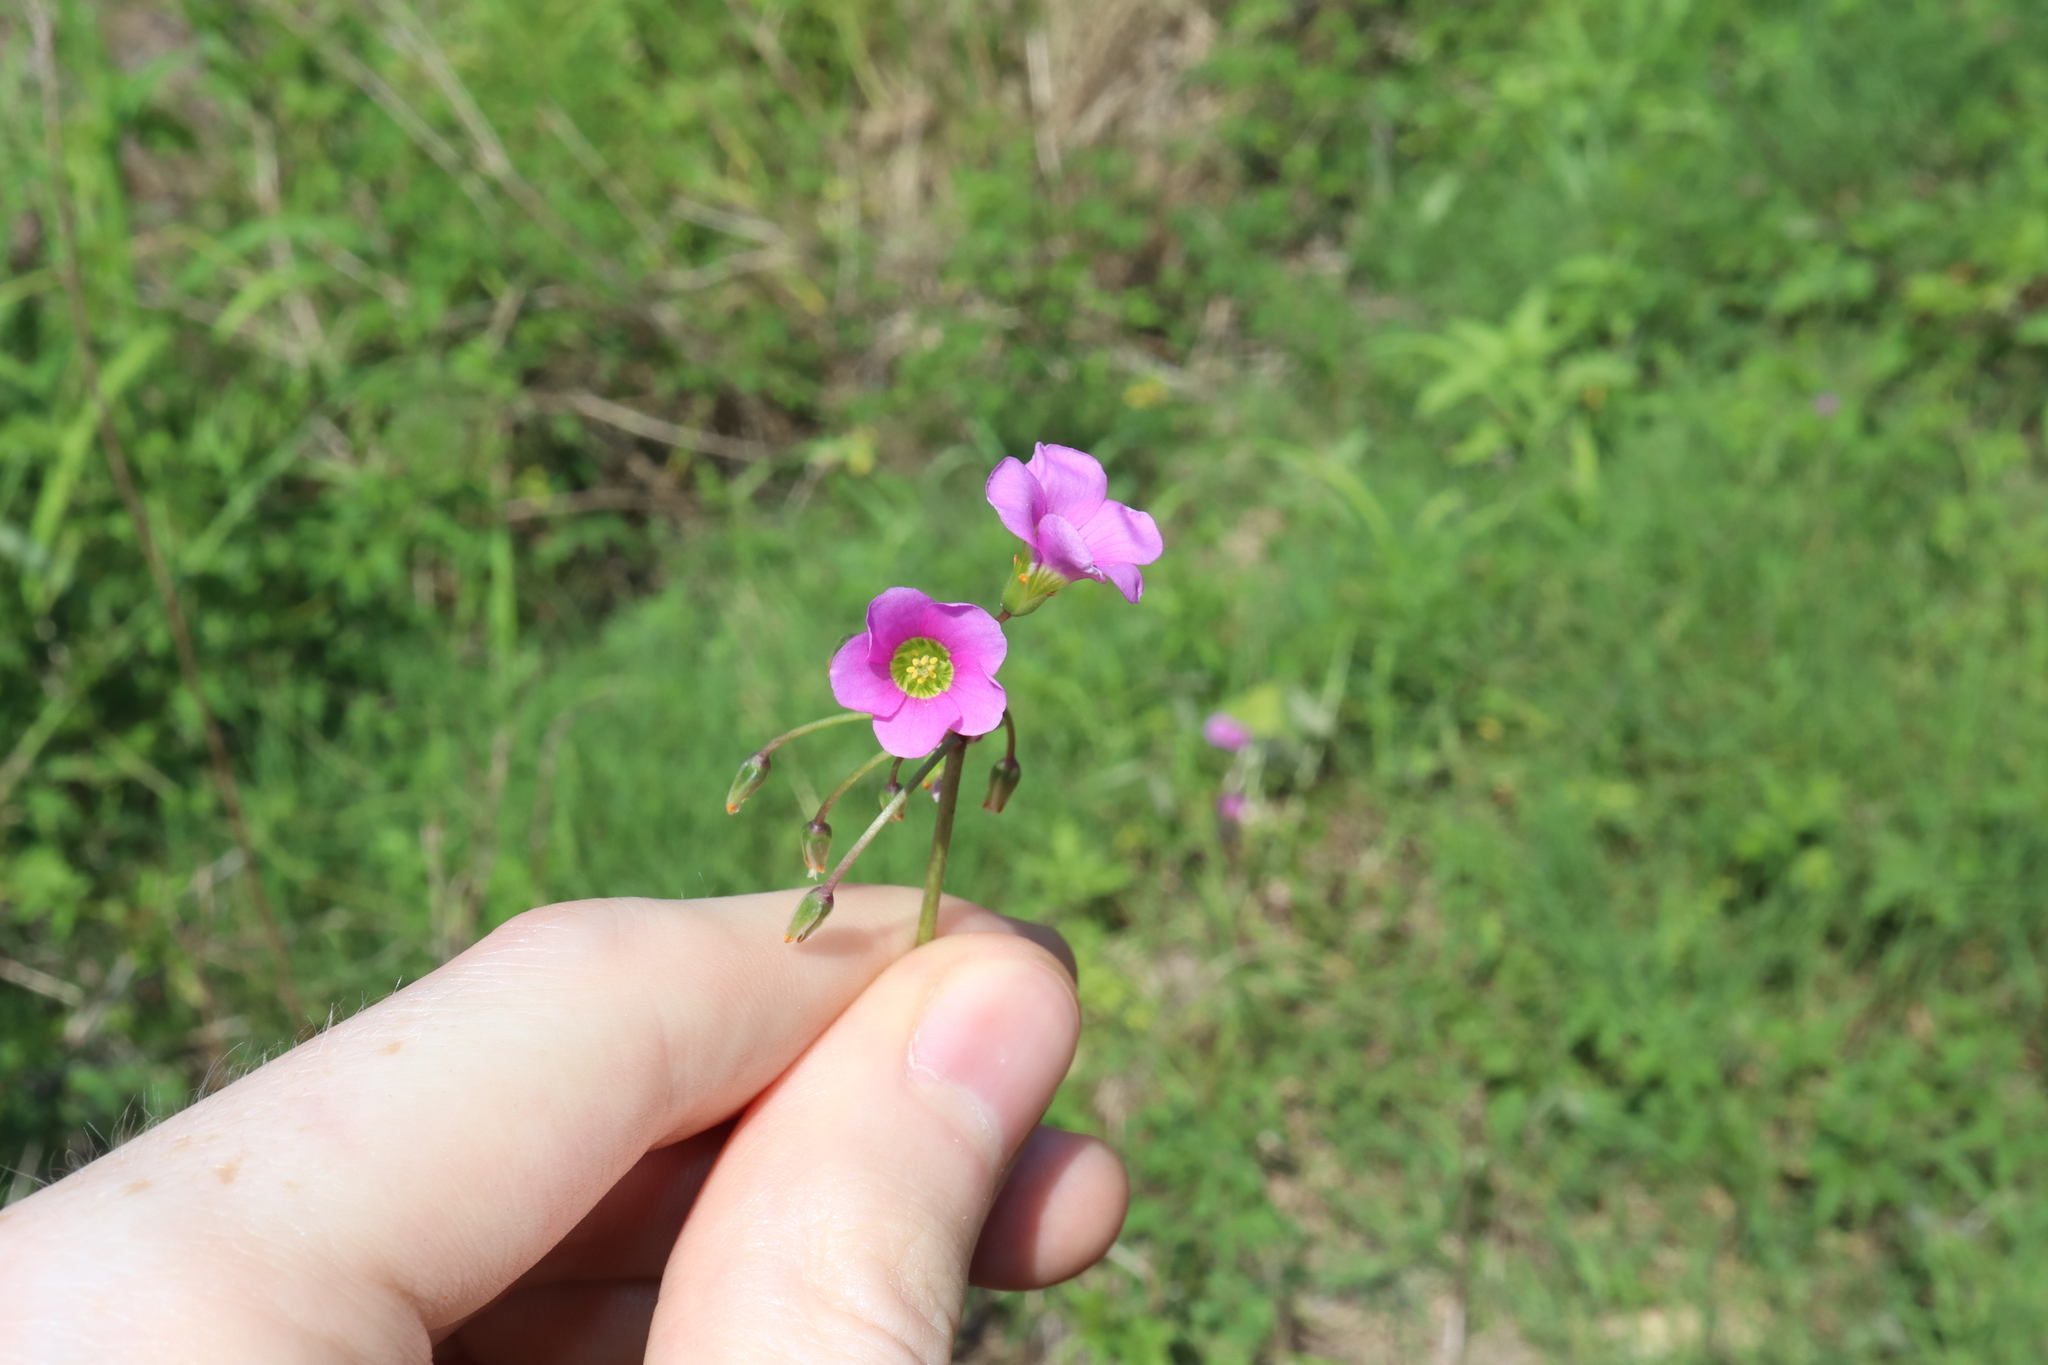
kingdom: Plantae
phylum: Tracheophyta
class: Magnoliopsida
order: Oxalidales
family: Oxalidaceae
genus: Oxalis
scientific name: Oxalis latifolia
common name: Garden pink-sorrel
